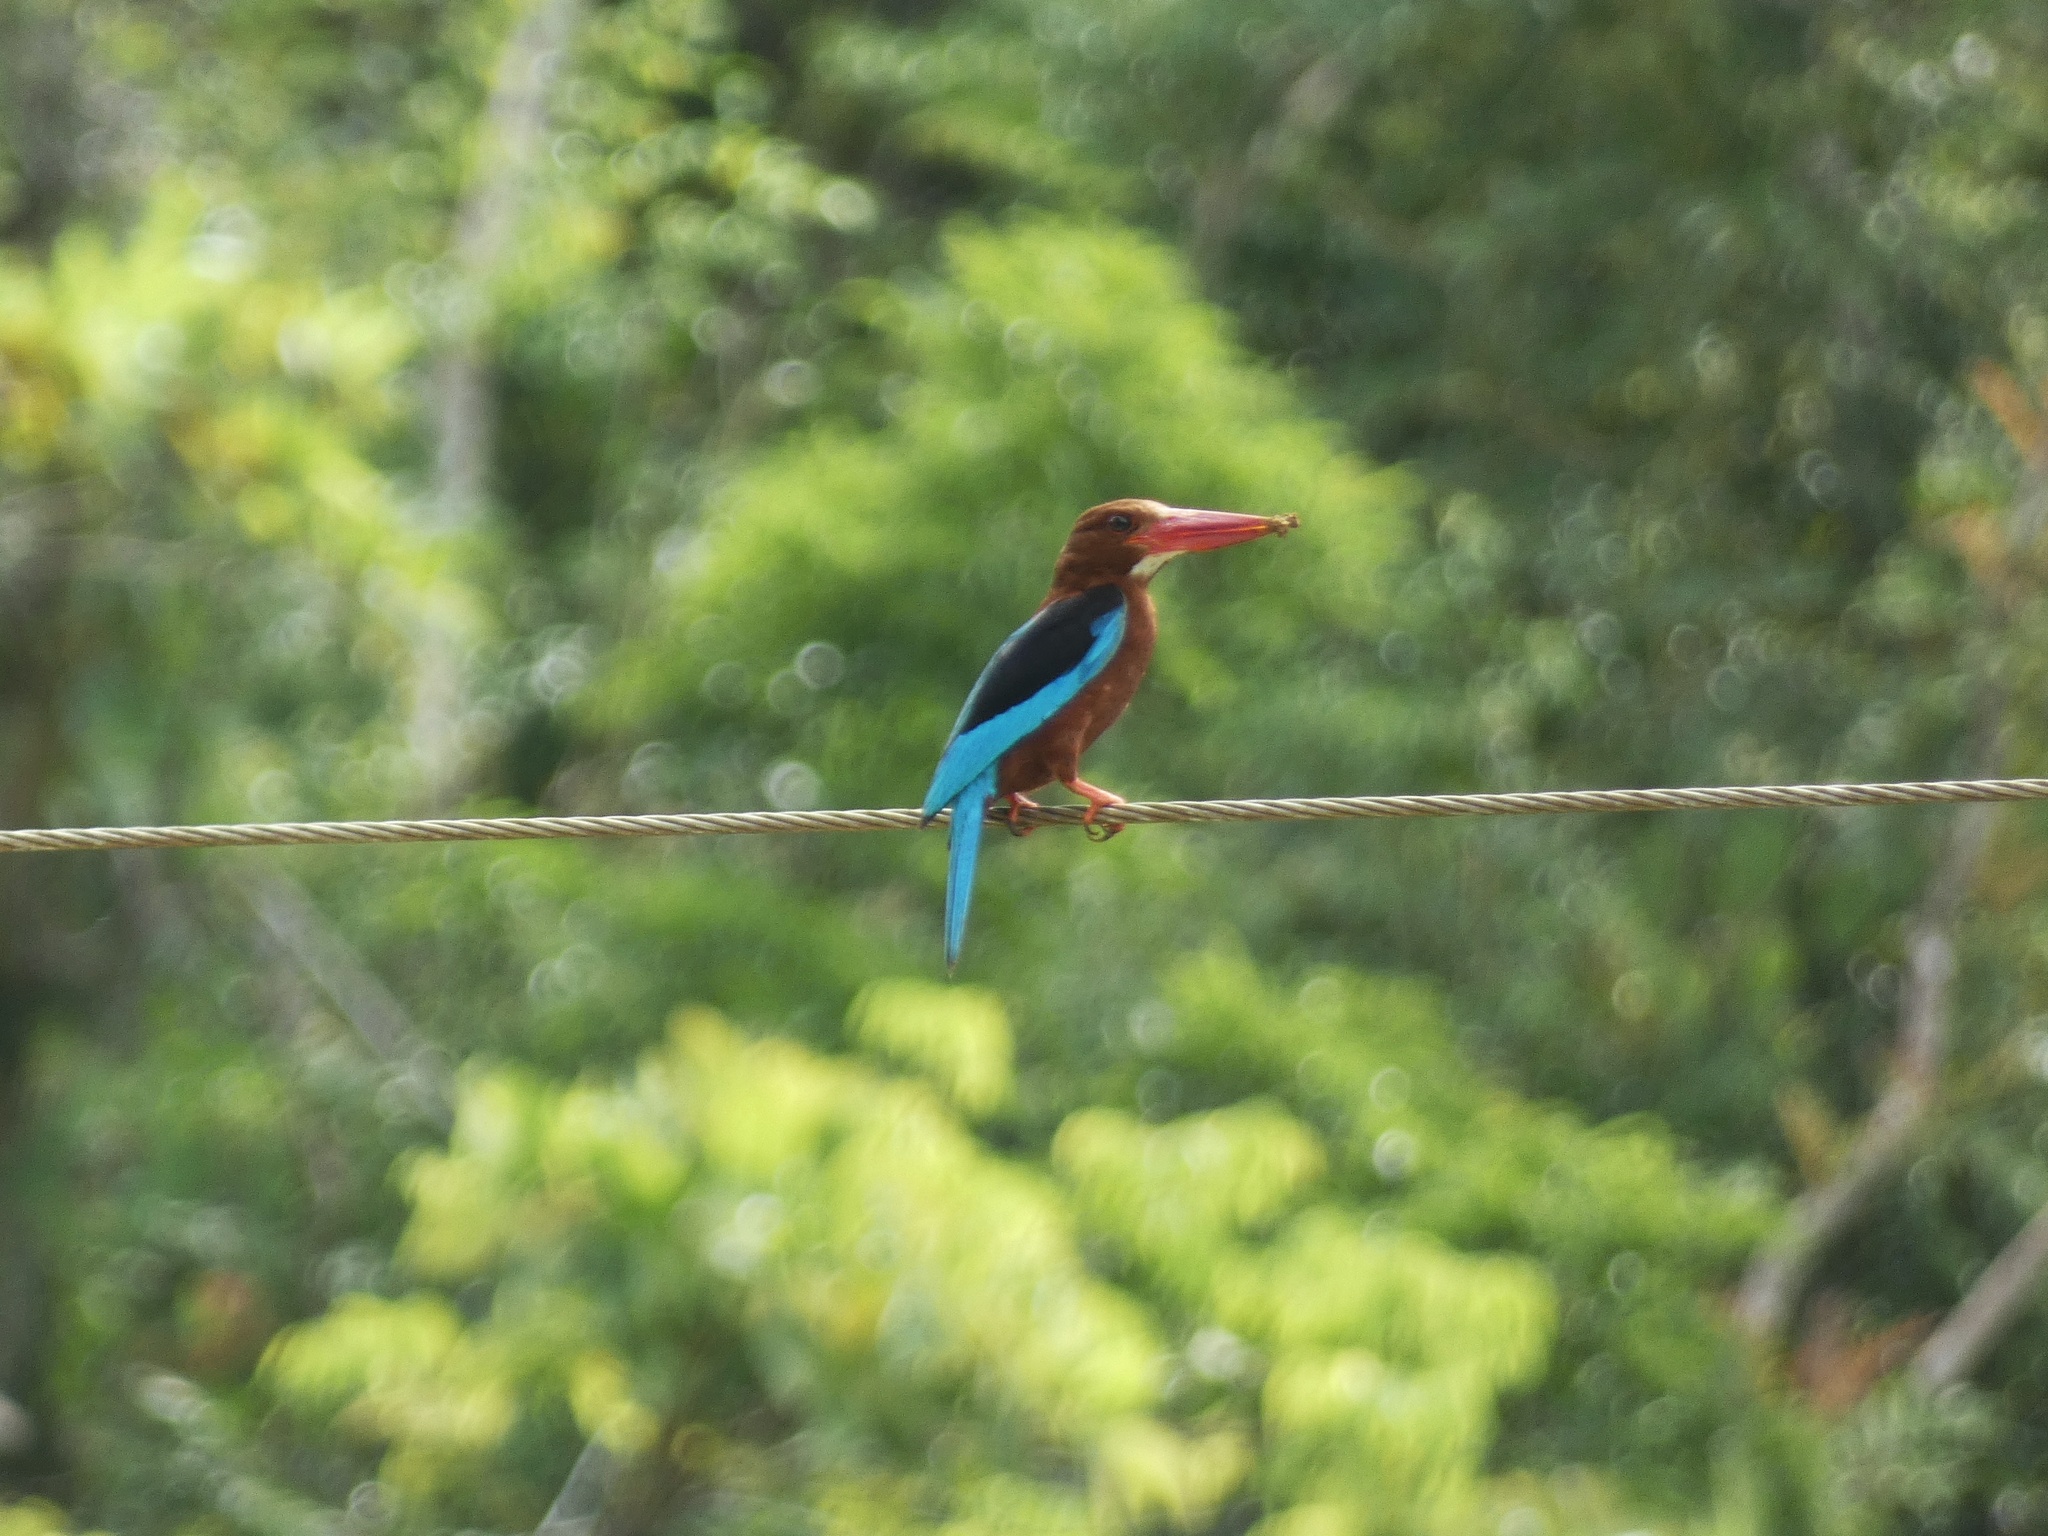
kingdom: Animalia
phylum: Chordata
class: Aves
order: Coraciiformes
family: Alcedinidae
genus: Halcyon
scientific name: Halcyon gularis
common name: Brown-breasted kingfisher
